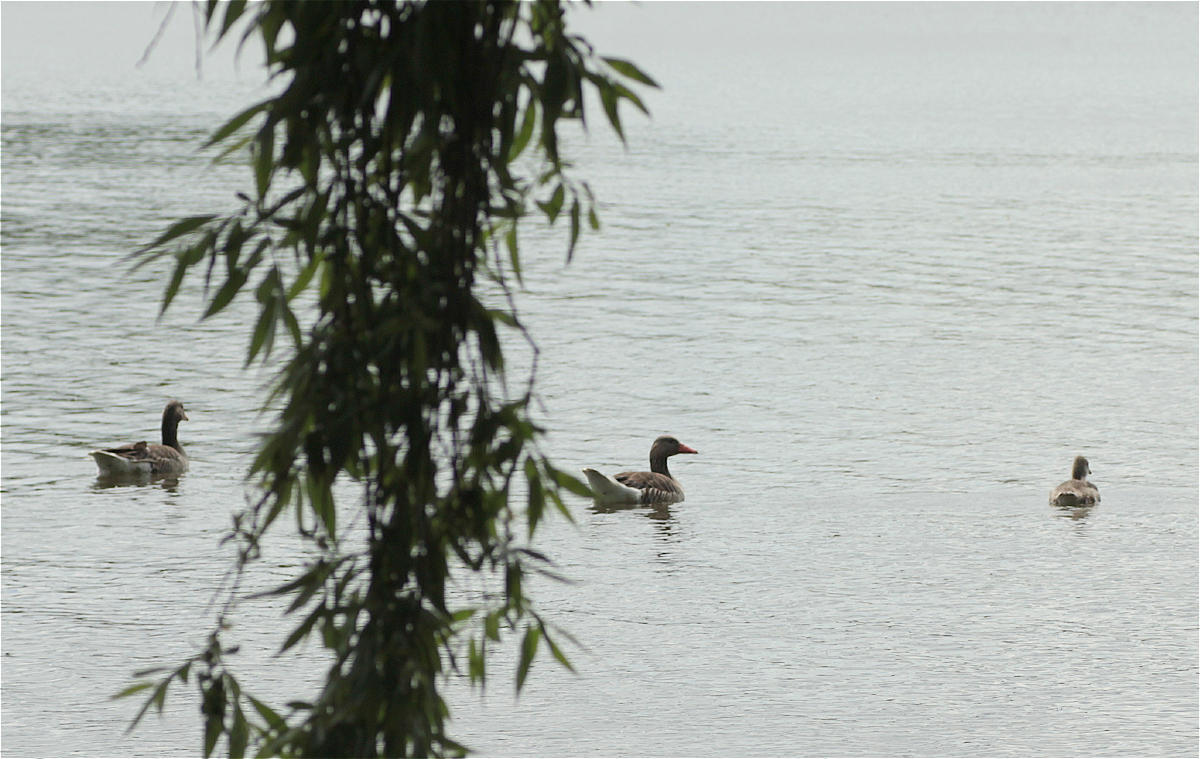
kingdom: Animalia
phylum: Chordata
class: Aves
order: Anseriformes
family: Anatidae
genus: Anser
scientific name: Anser anser
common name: Greylag goose
